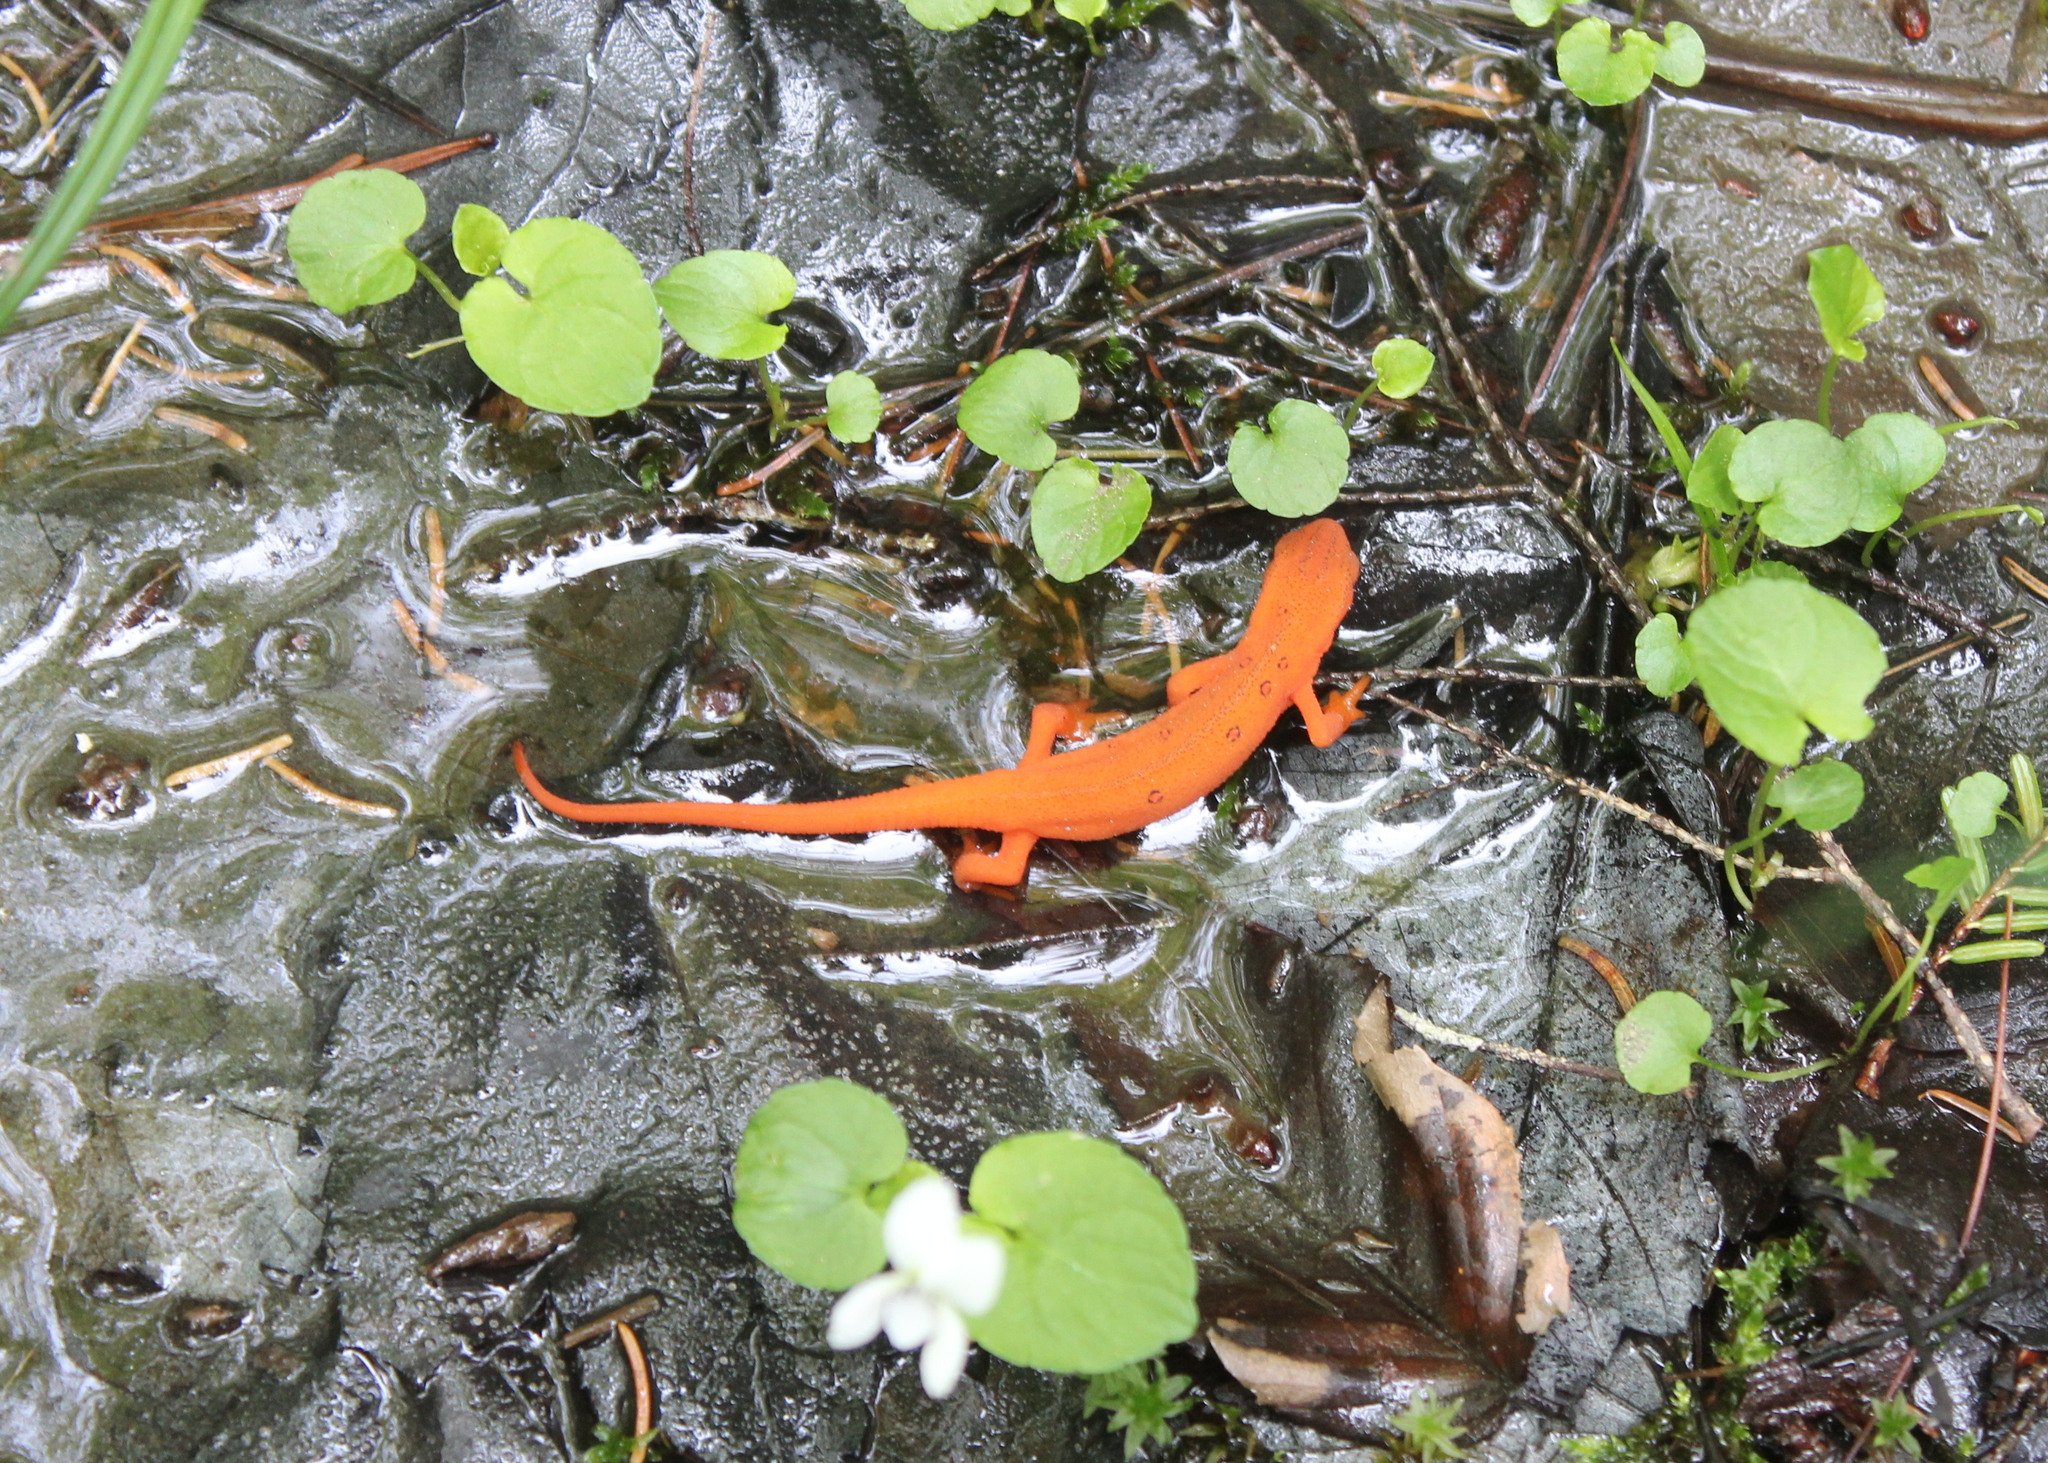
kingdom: Animalia
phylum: Chordata
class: Amphibia
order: Caudata
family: Salamandridae
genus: Notophthalmus
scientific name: Notophthalmus viridescens
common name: Eastern newt
